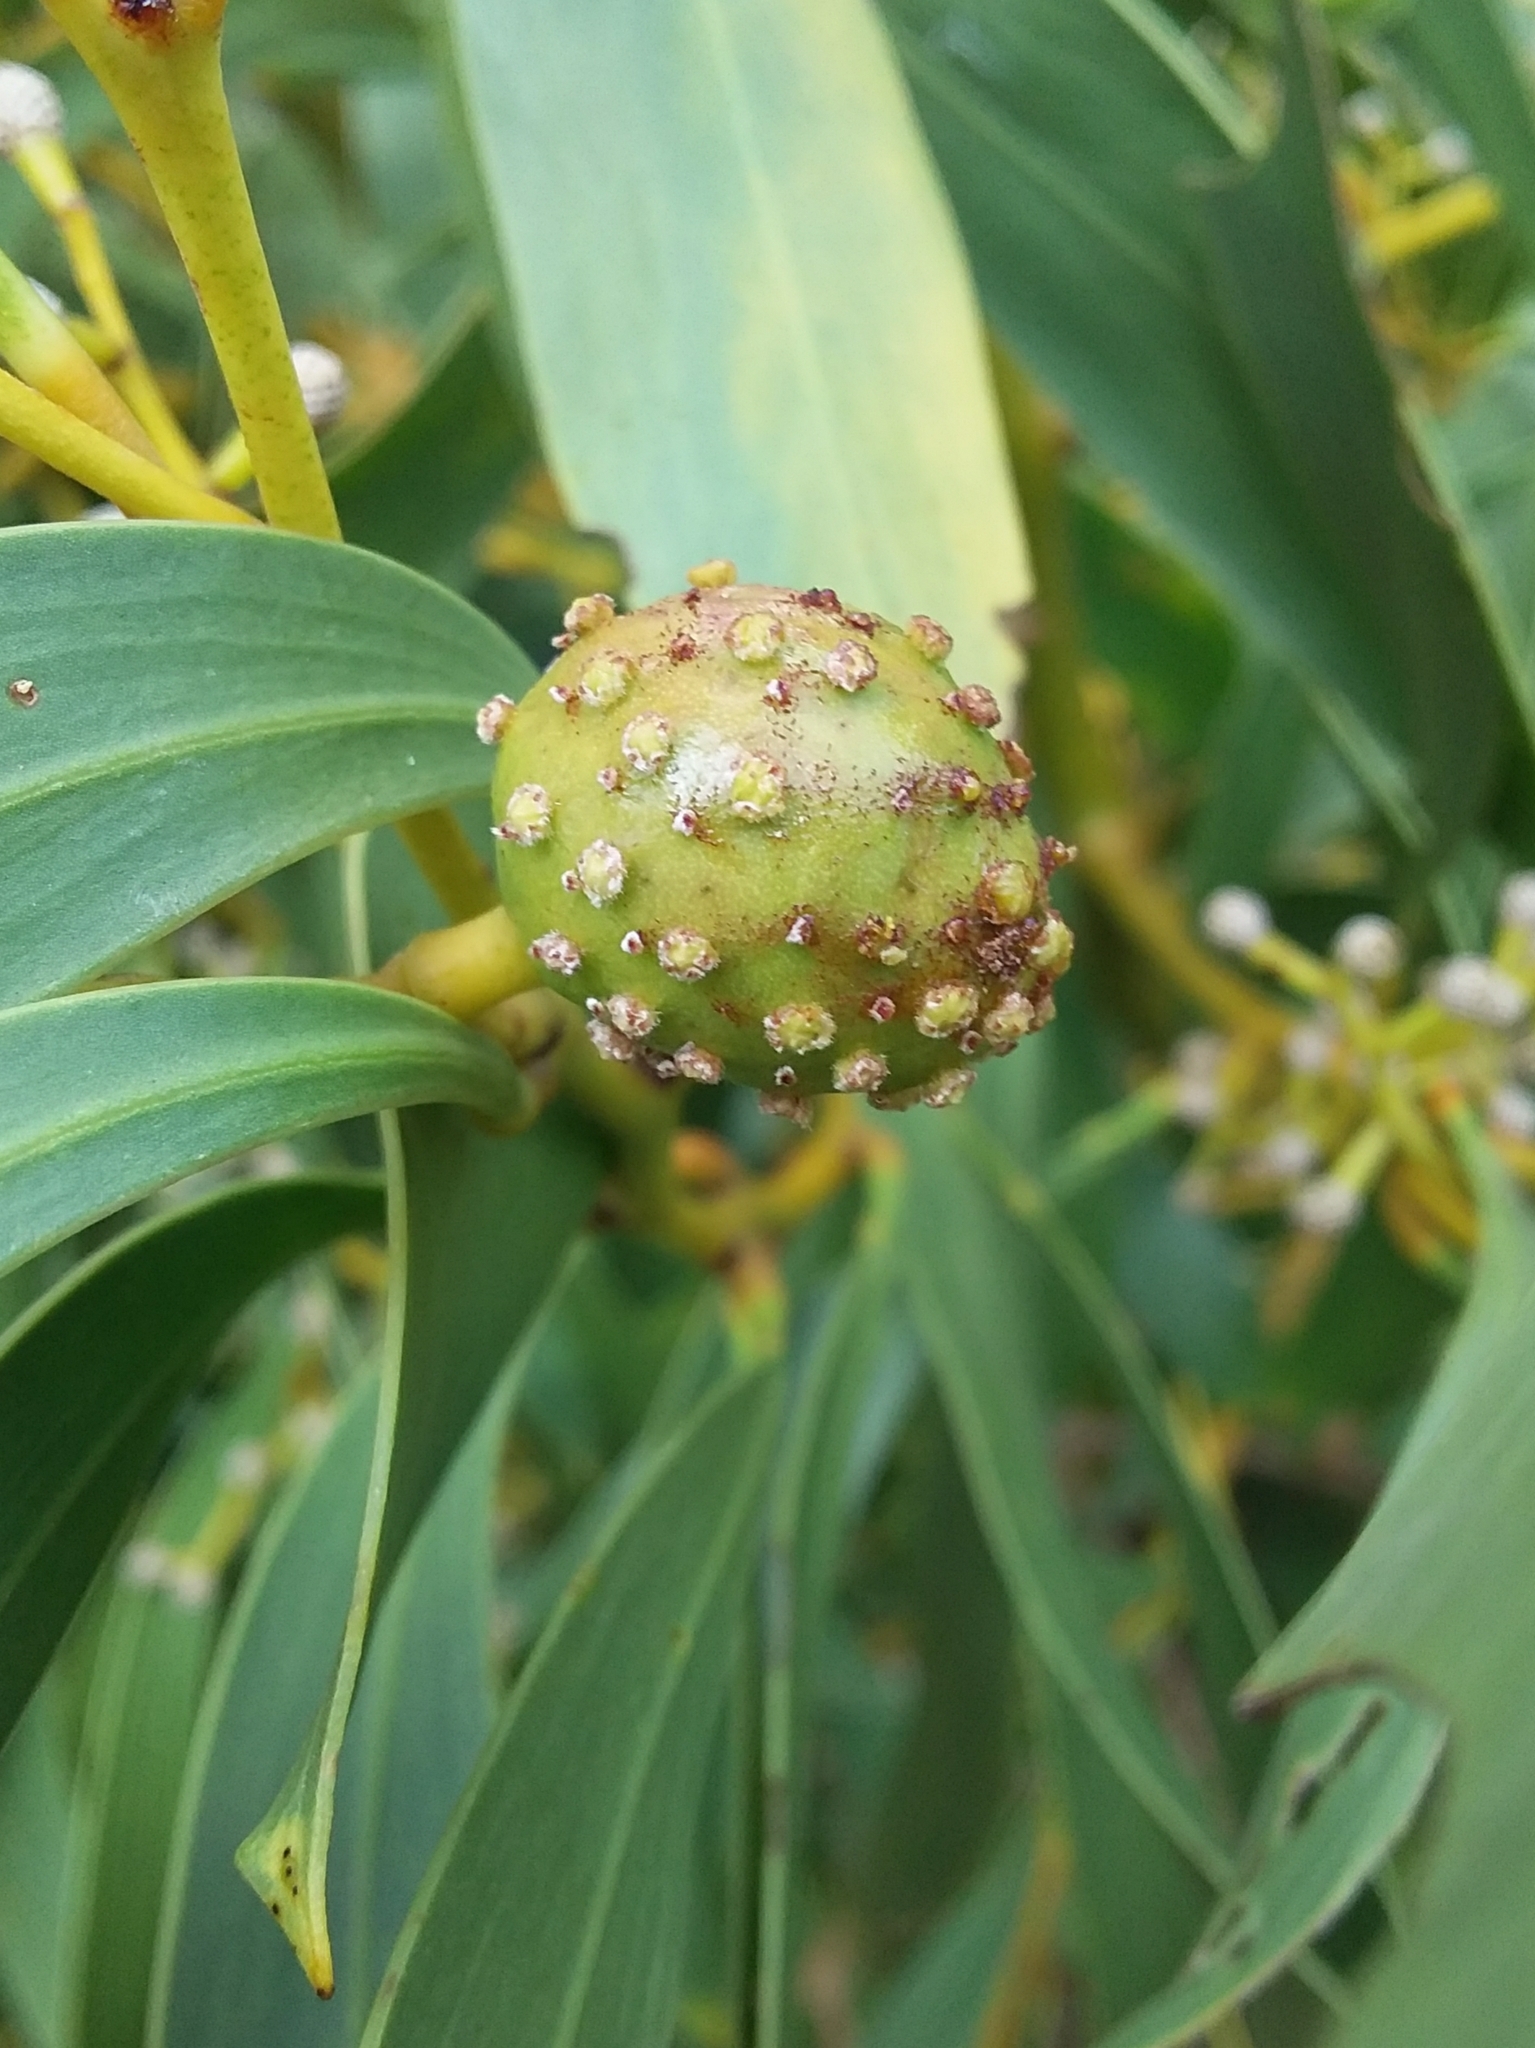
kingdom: Animalia
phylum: Arthropoda
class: Insecta
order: Hymenoptera
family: Pteromalidae
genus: Trichilogaster
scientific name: Trichilogaster signiventris
